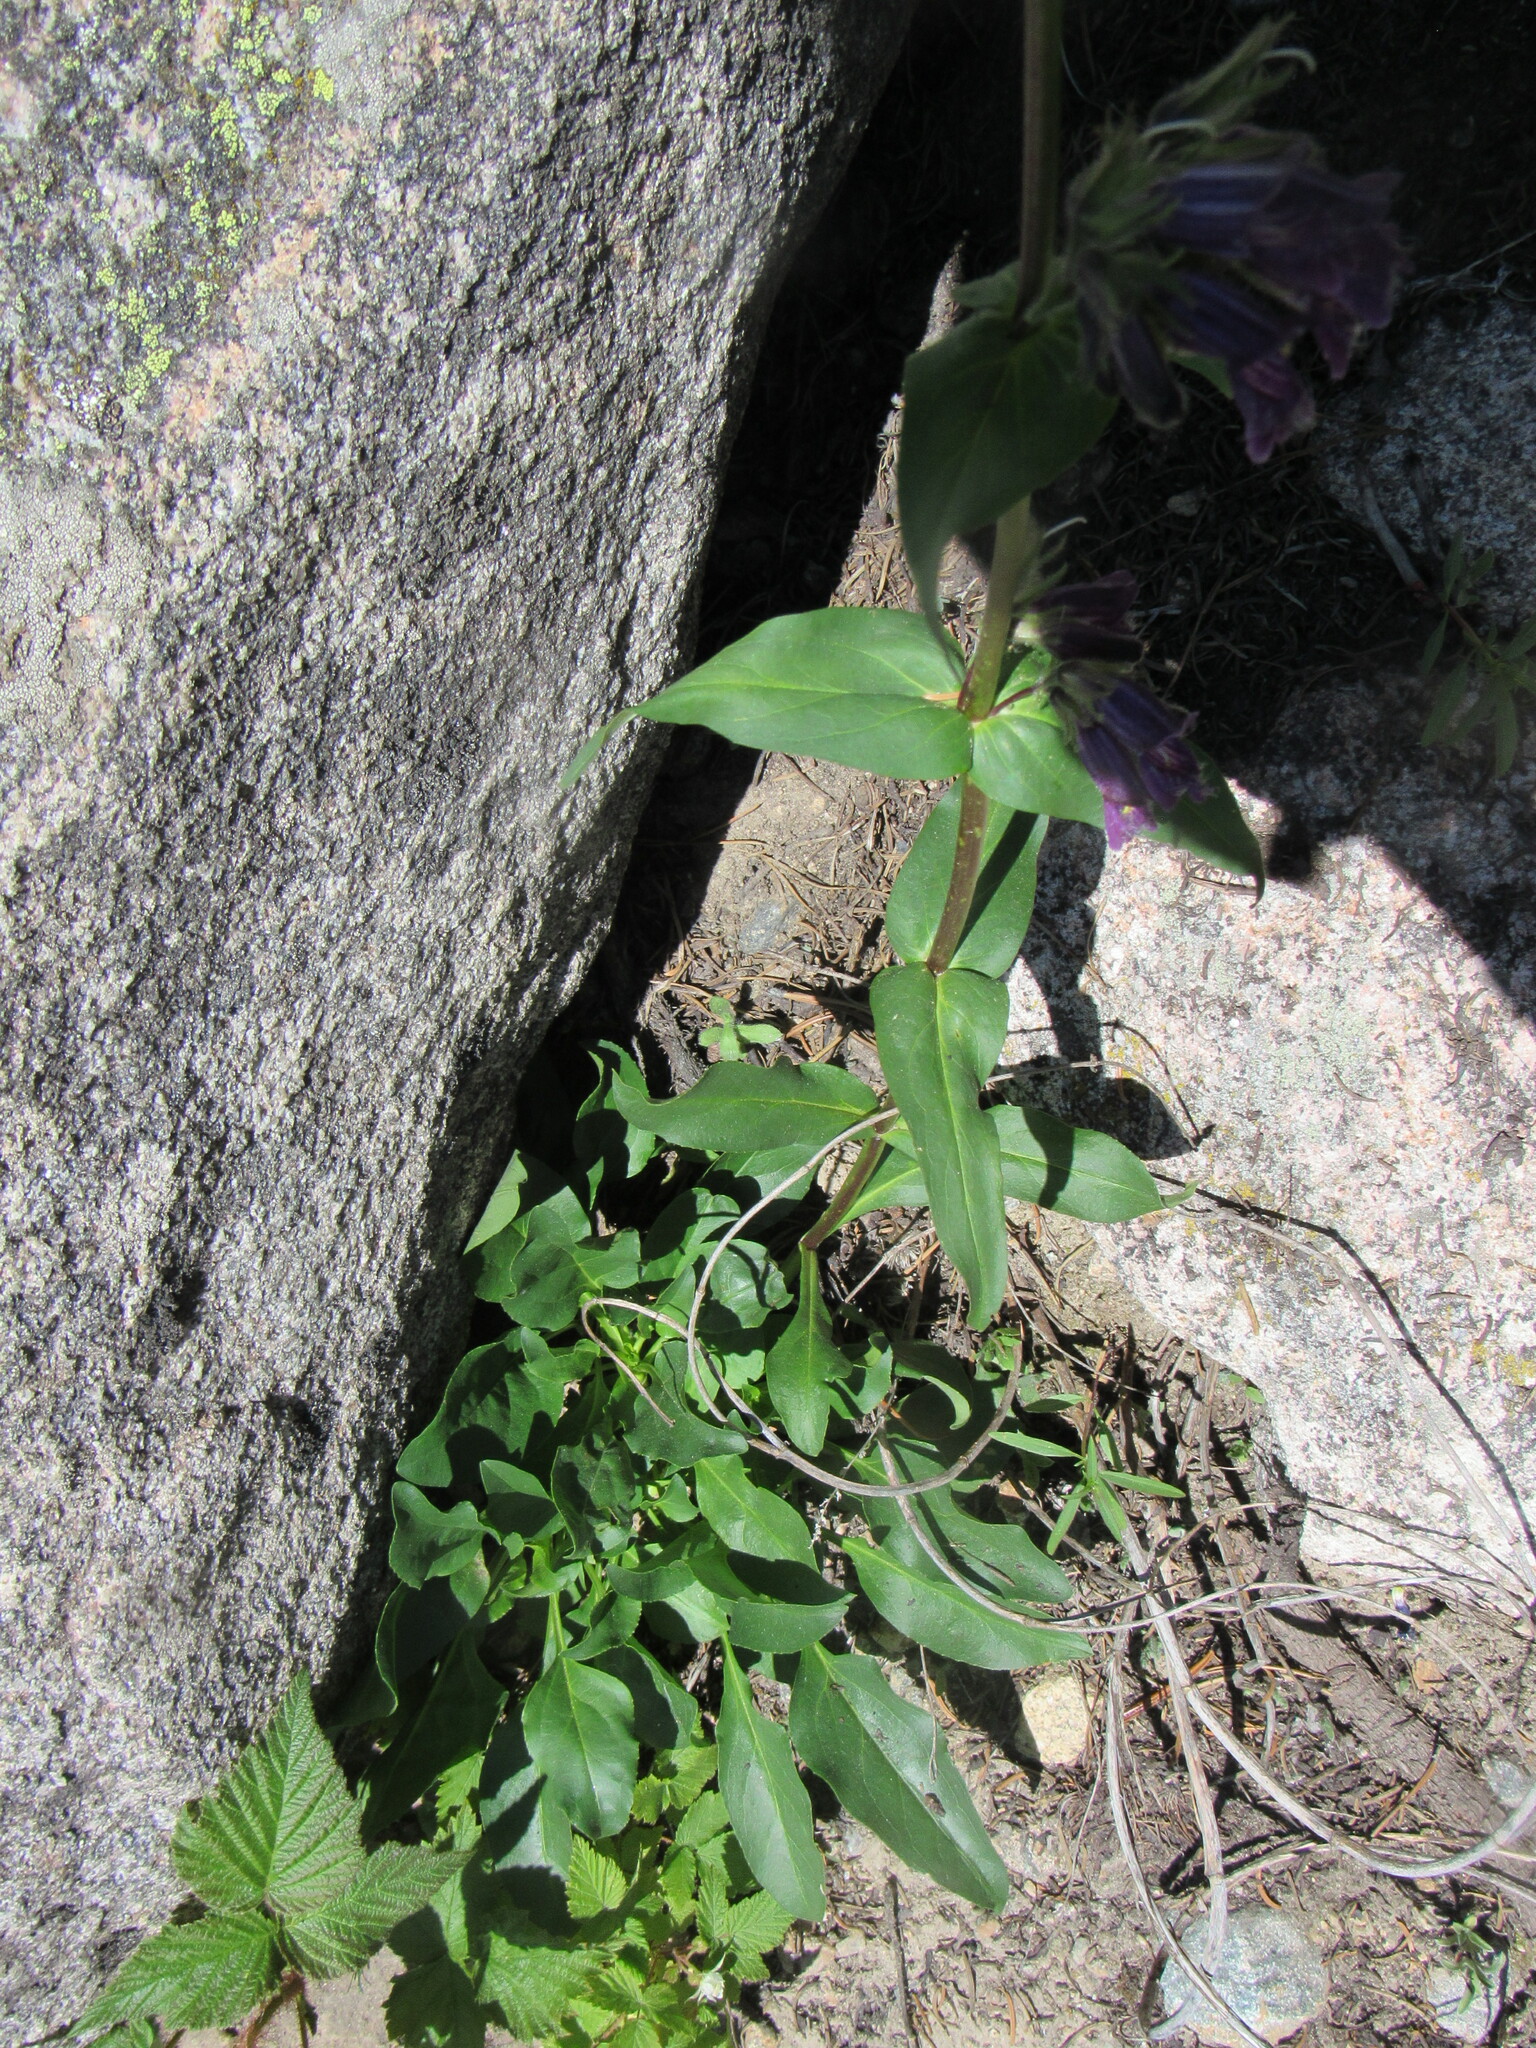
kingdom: Plantae
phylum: Tracheophyta
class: Magnoliopsida
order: Lamiales
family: Plantaginaceae
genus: Penstemon
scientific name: Penstemon whippleanus
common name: Whipple's penstemon
